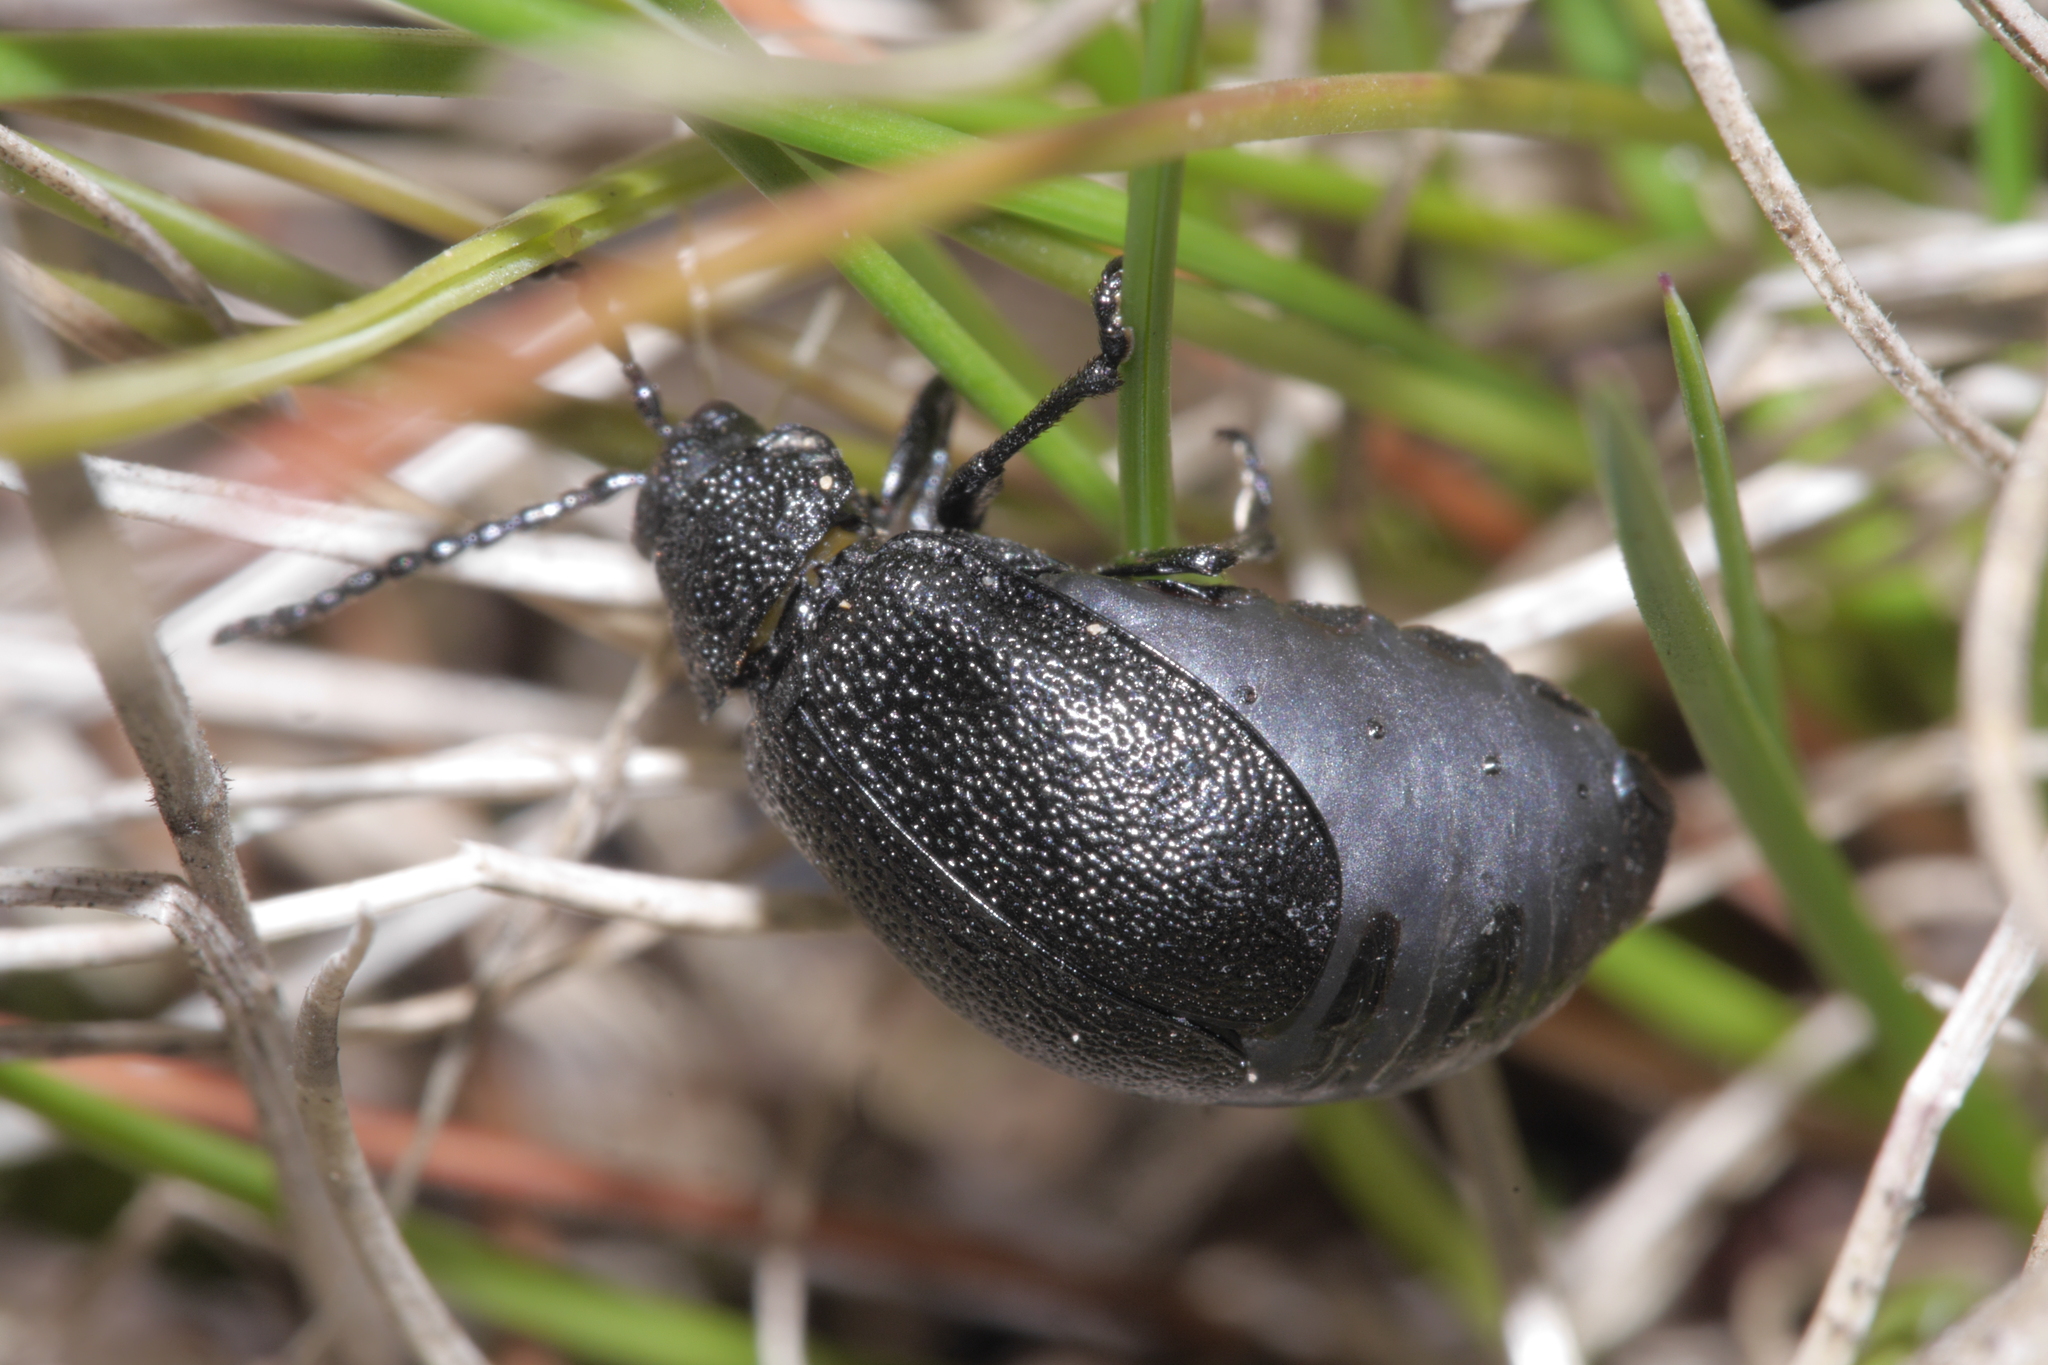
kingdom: Animalia
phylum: Arthropoda
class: Insecta
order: Coleoptera
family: Chrysomelidae
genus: Galeruca
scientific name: Galeruca tanaceti
